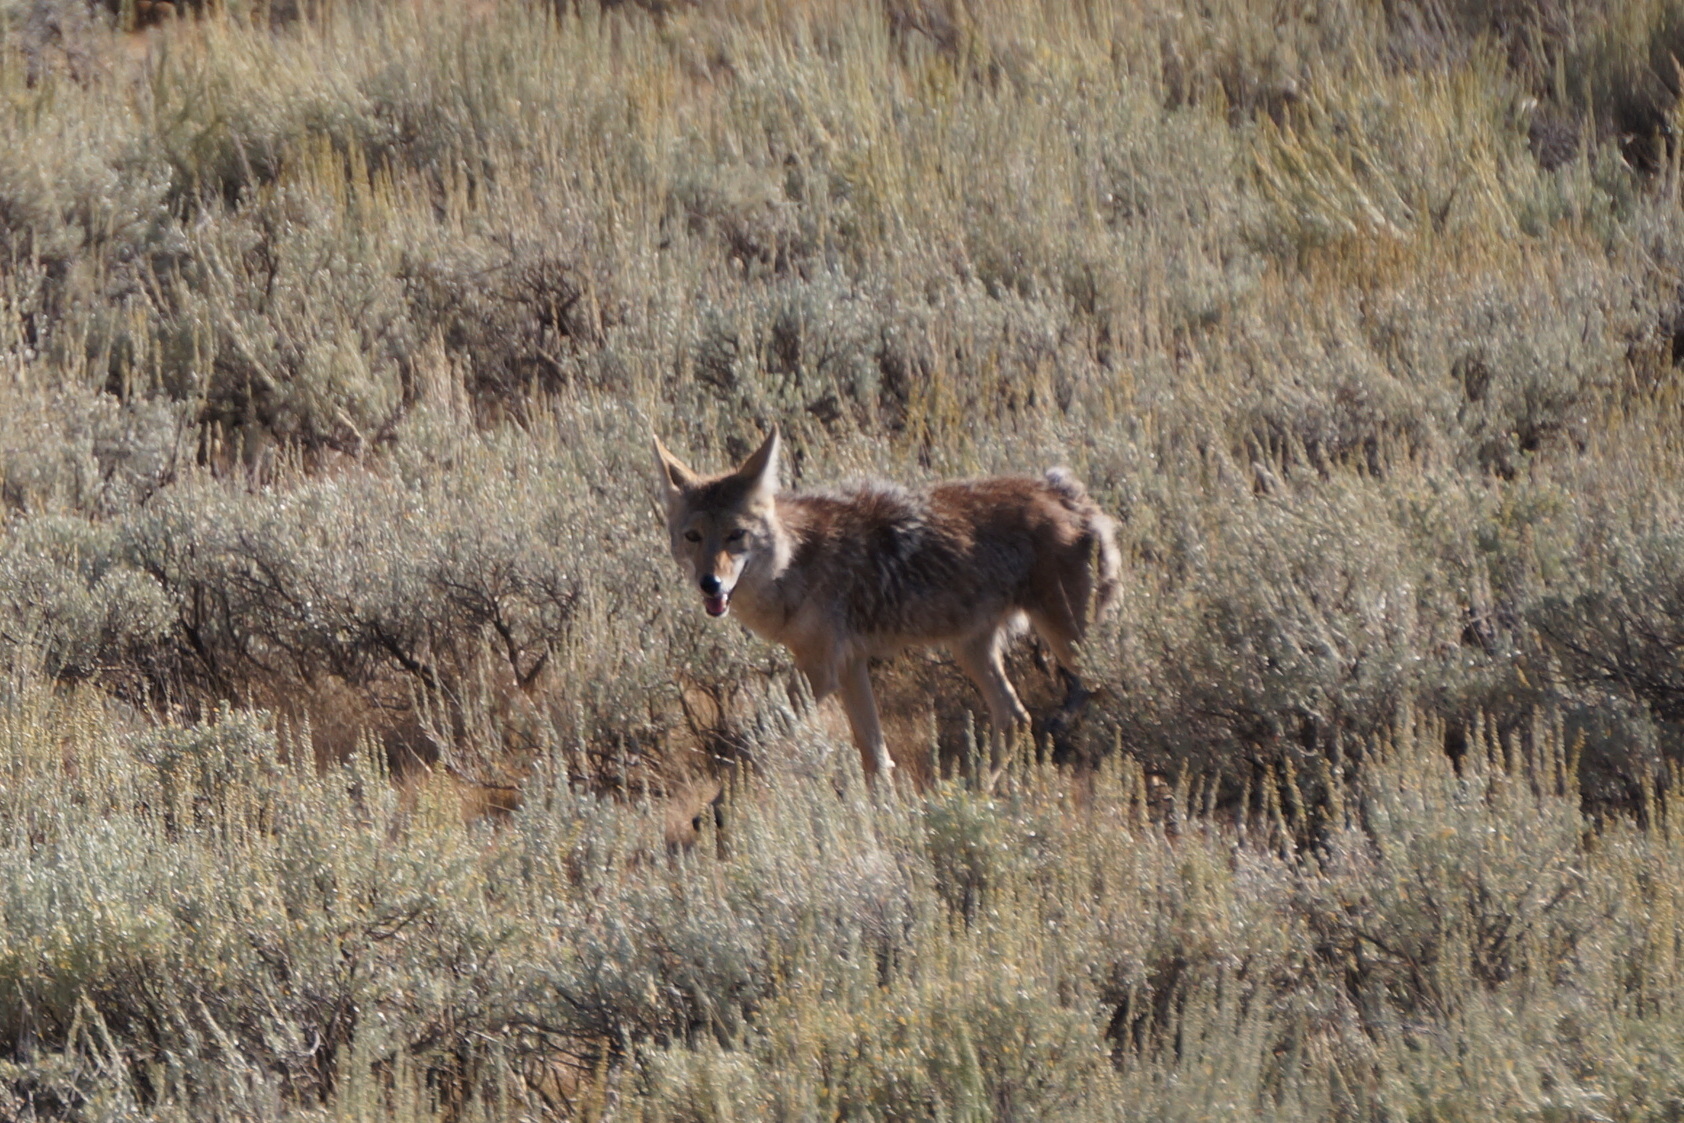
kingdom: Animalia
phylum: Chordata
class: Mammalia
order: Carnivora
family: Canidae
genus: Canis
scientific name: Canis latrans
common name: Coyote
